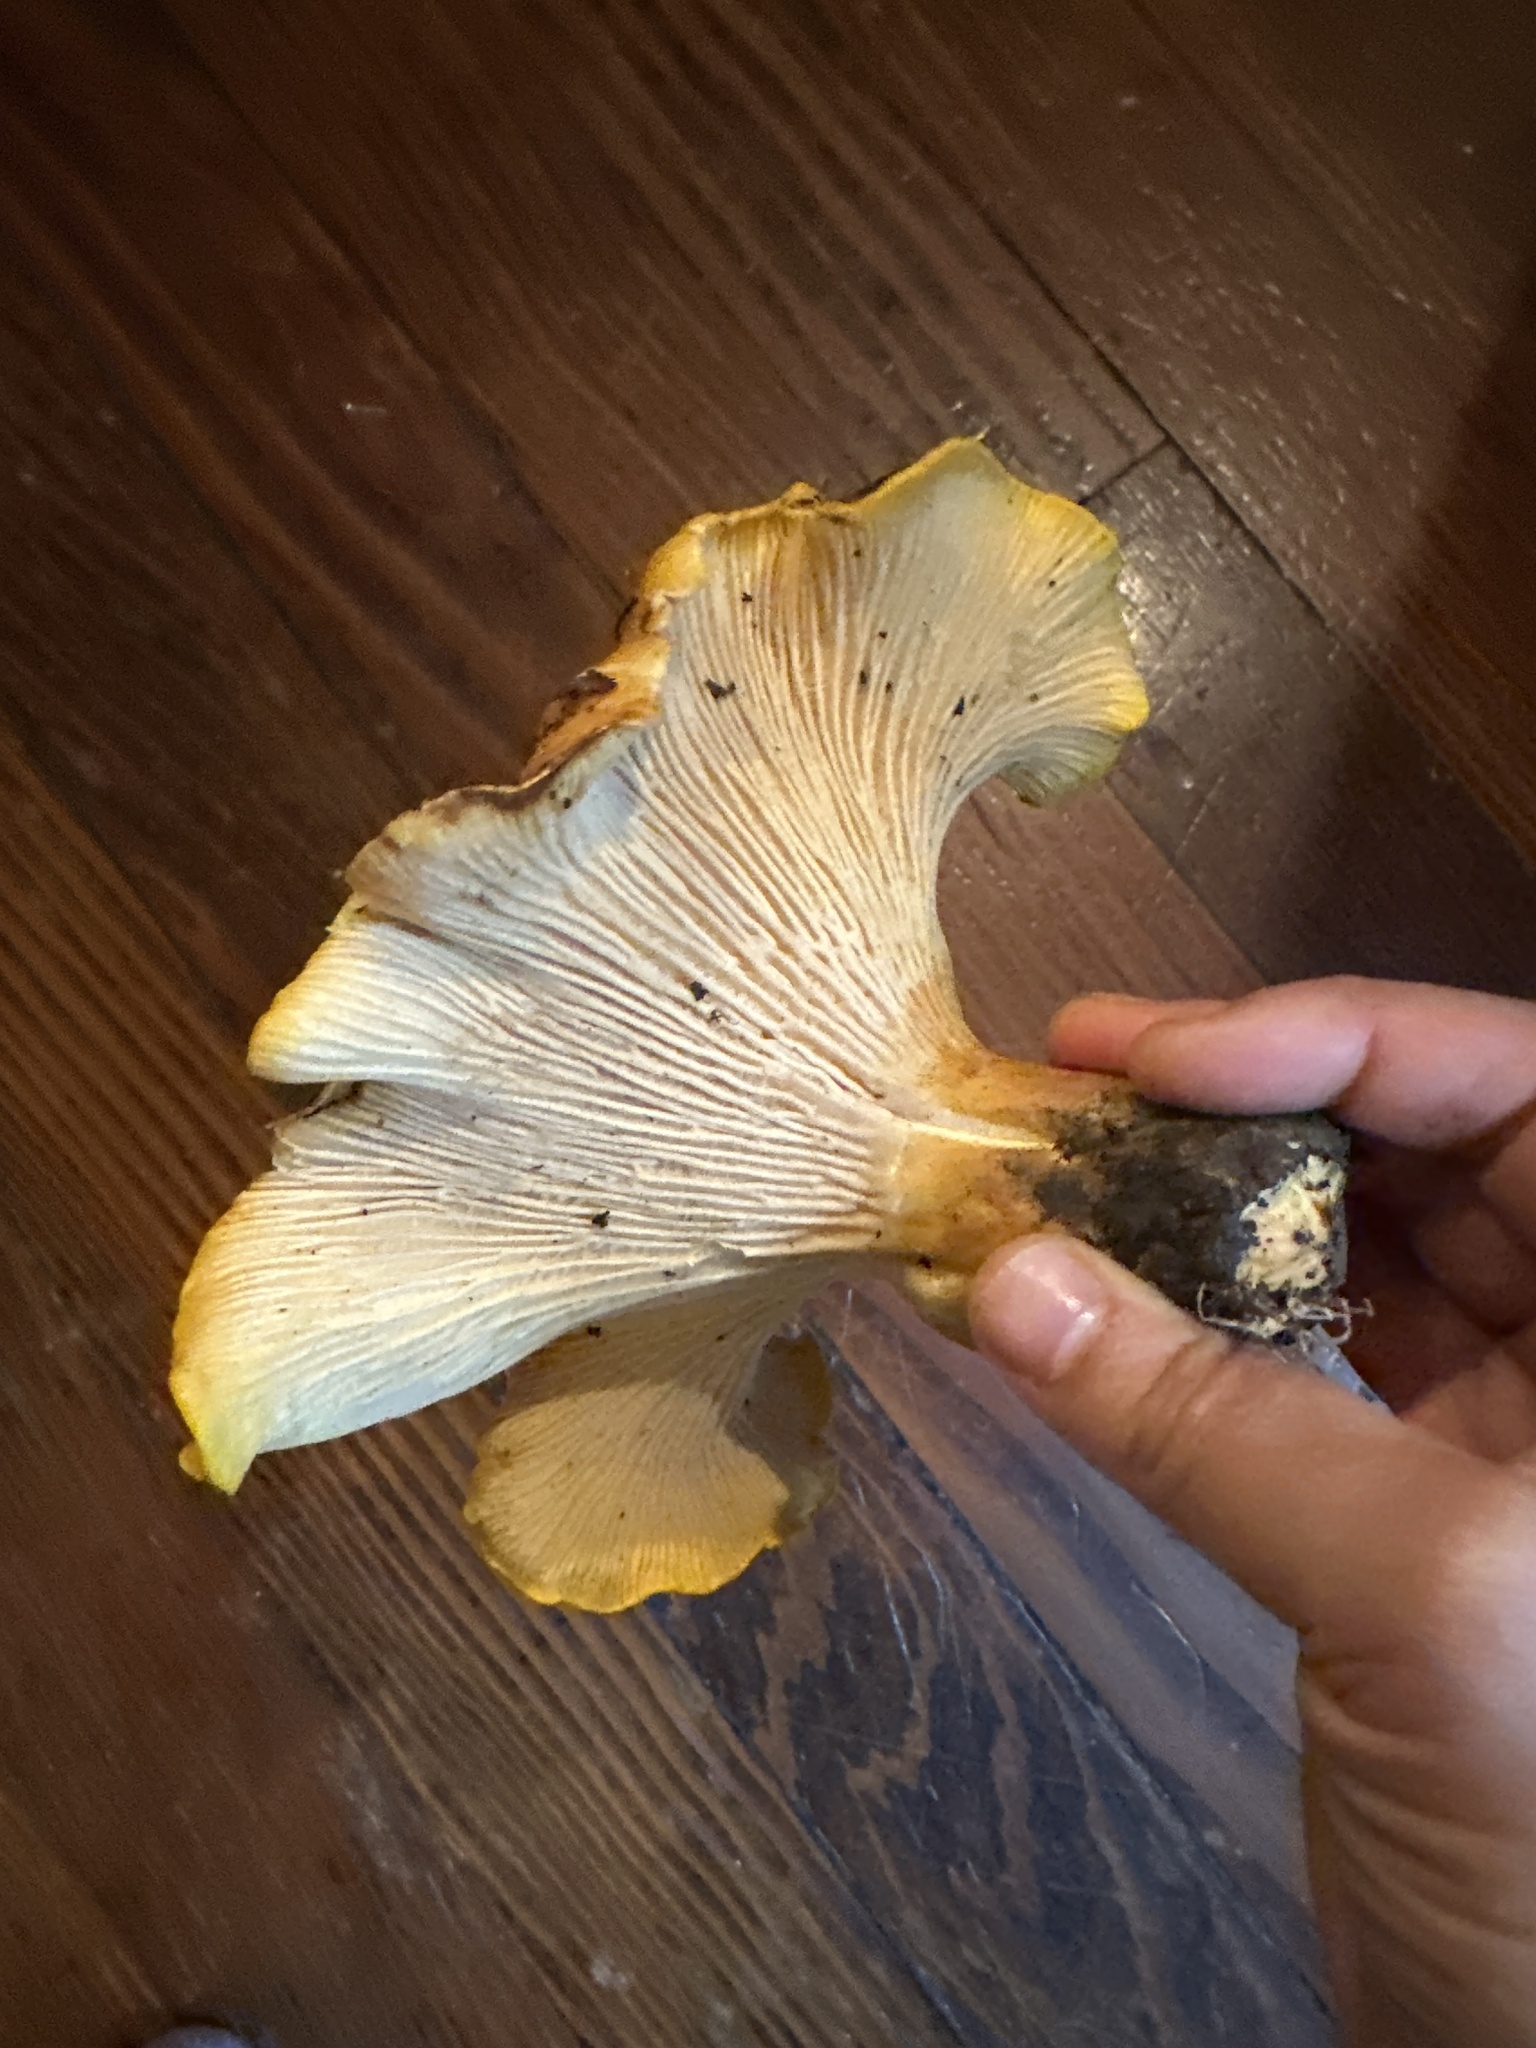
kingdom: Fungi
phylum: Basidiomycota
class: Agaricomycetes
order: Cantharellales
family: Hydnaceae
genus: Cantharellus
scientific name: Cantharellus californicus
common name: California golden chanterelle
